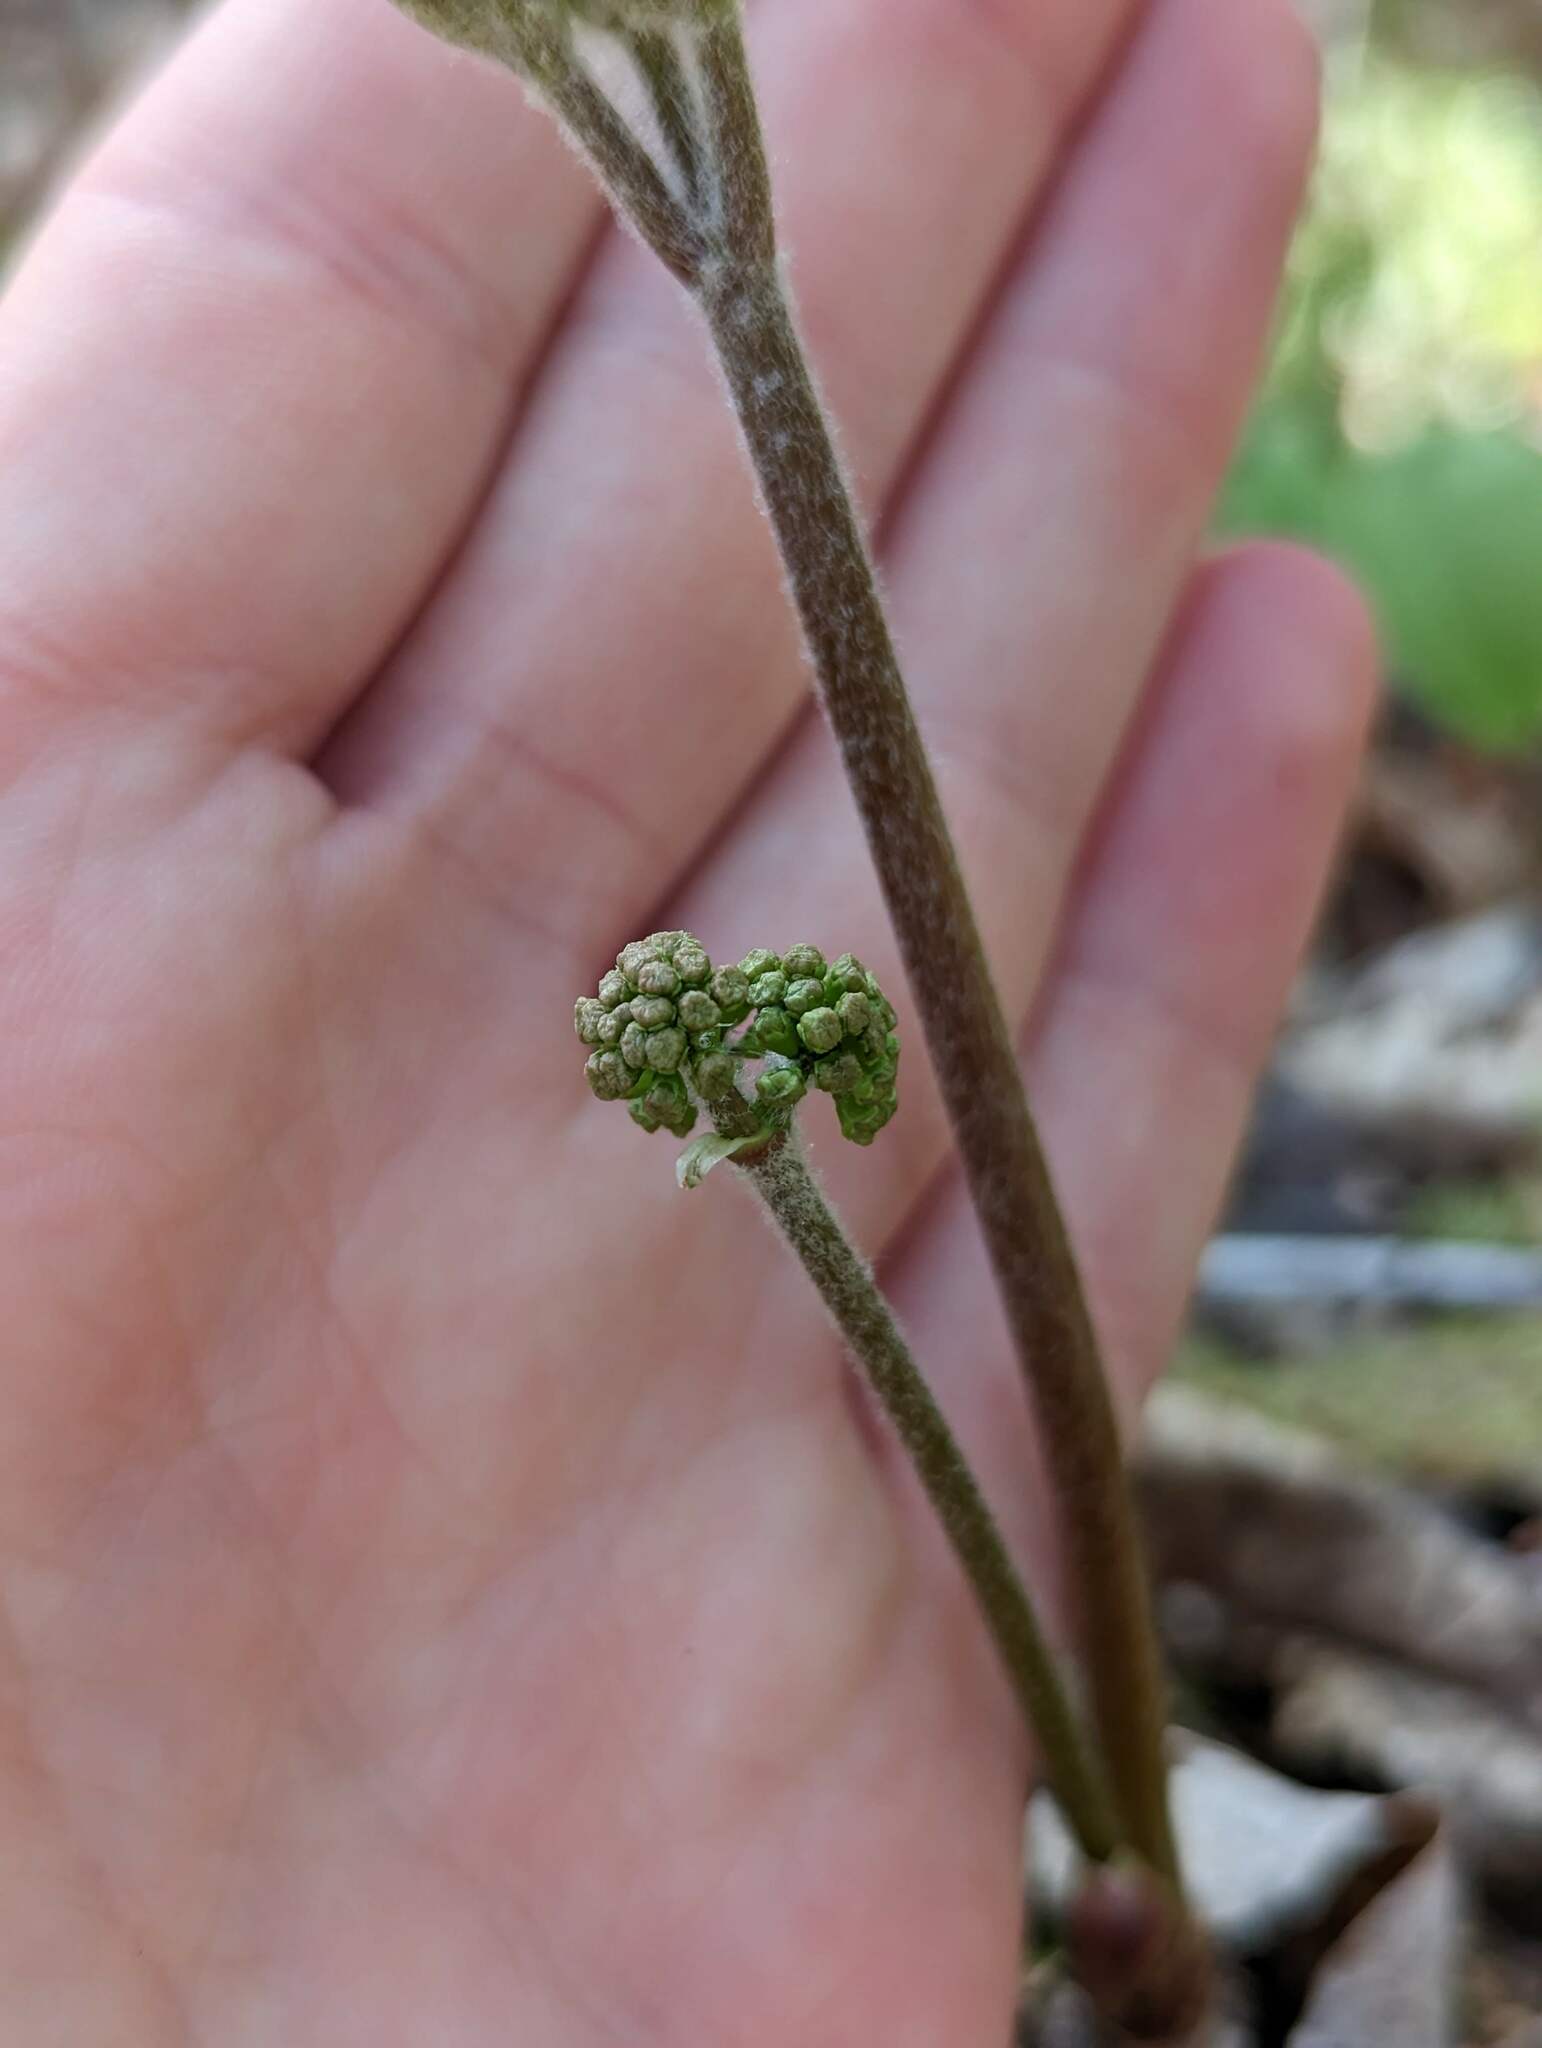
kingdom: Plantae
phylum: Tracheophyta
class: Magnoliopsida
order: Apiales
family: Araliaceae
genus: Aralia
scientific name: Aralia nudicaulis
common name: Wild sarsaparilla
